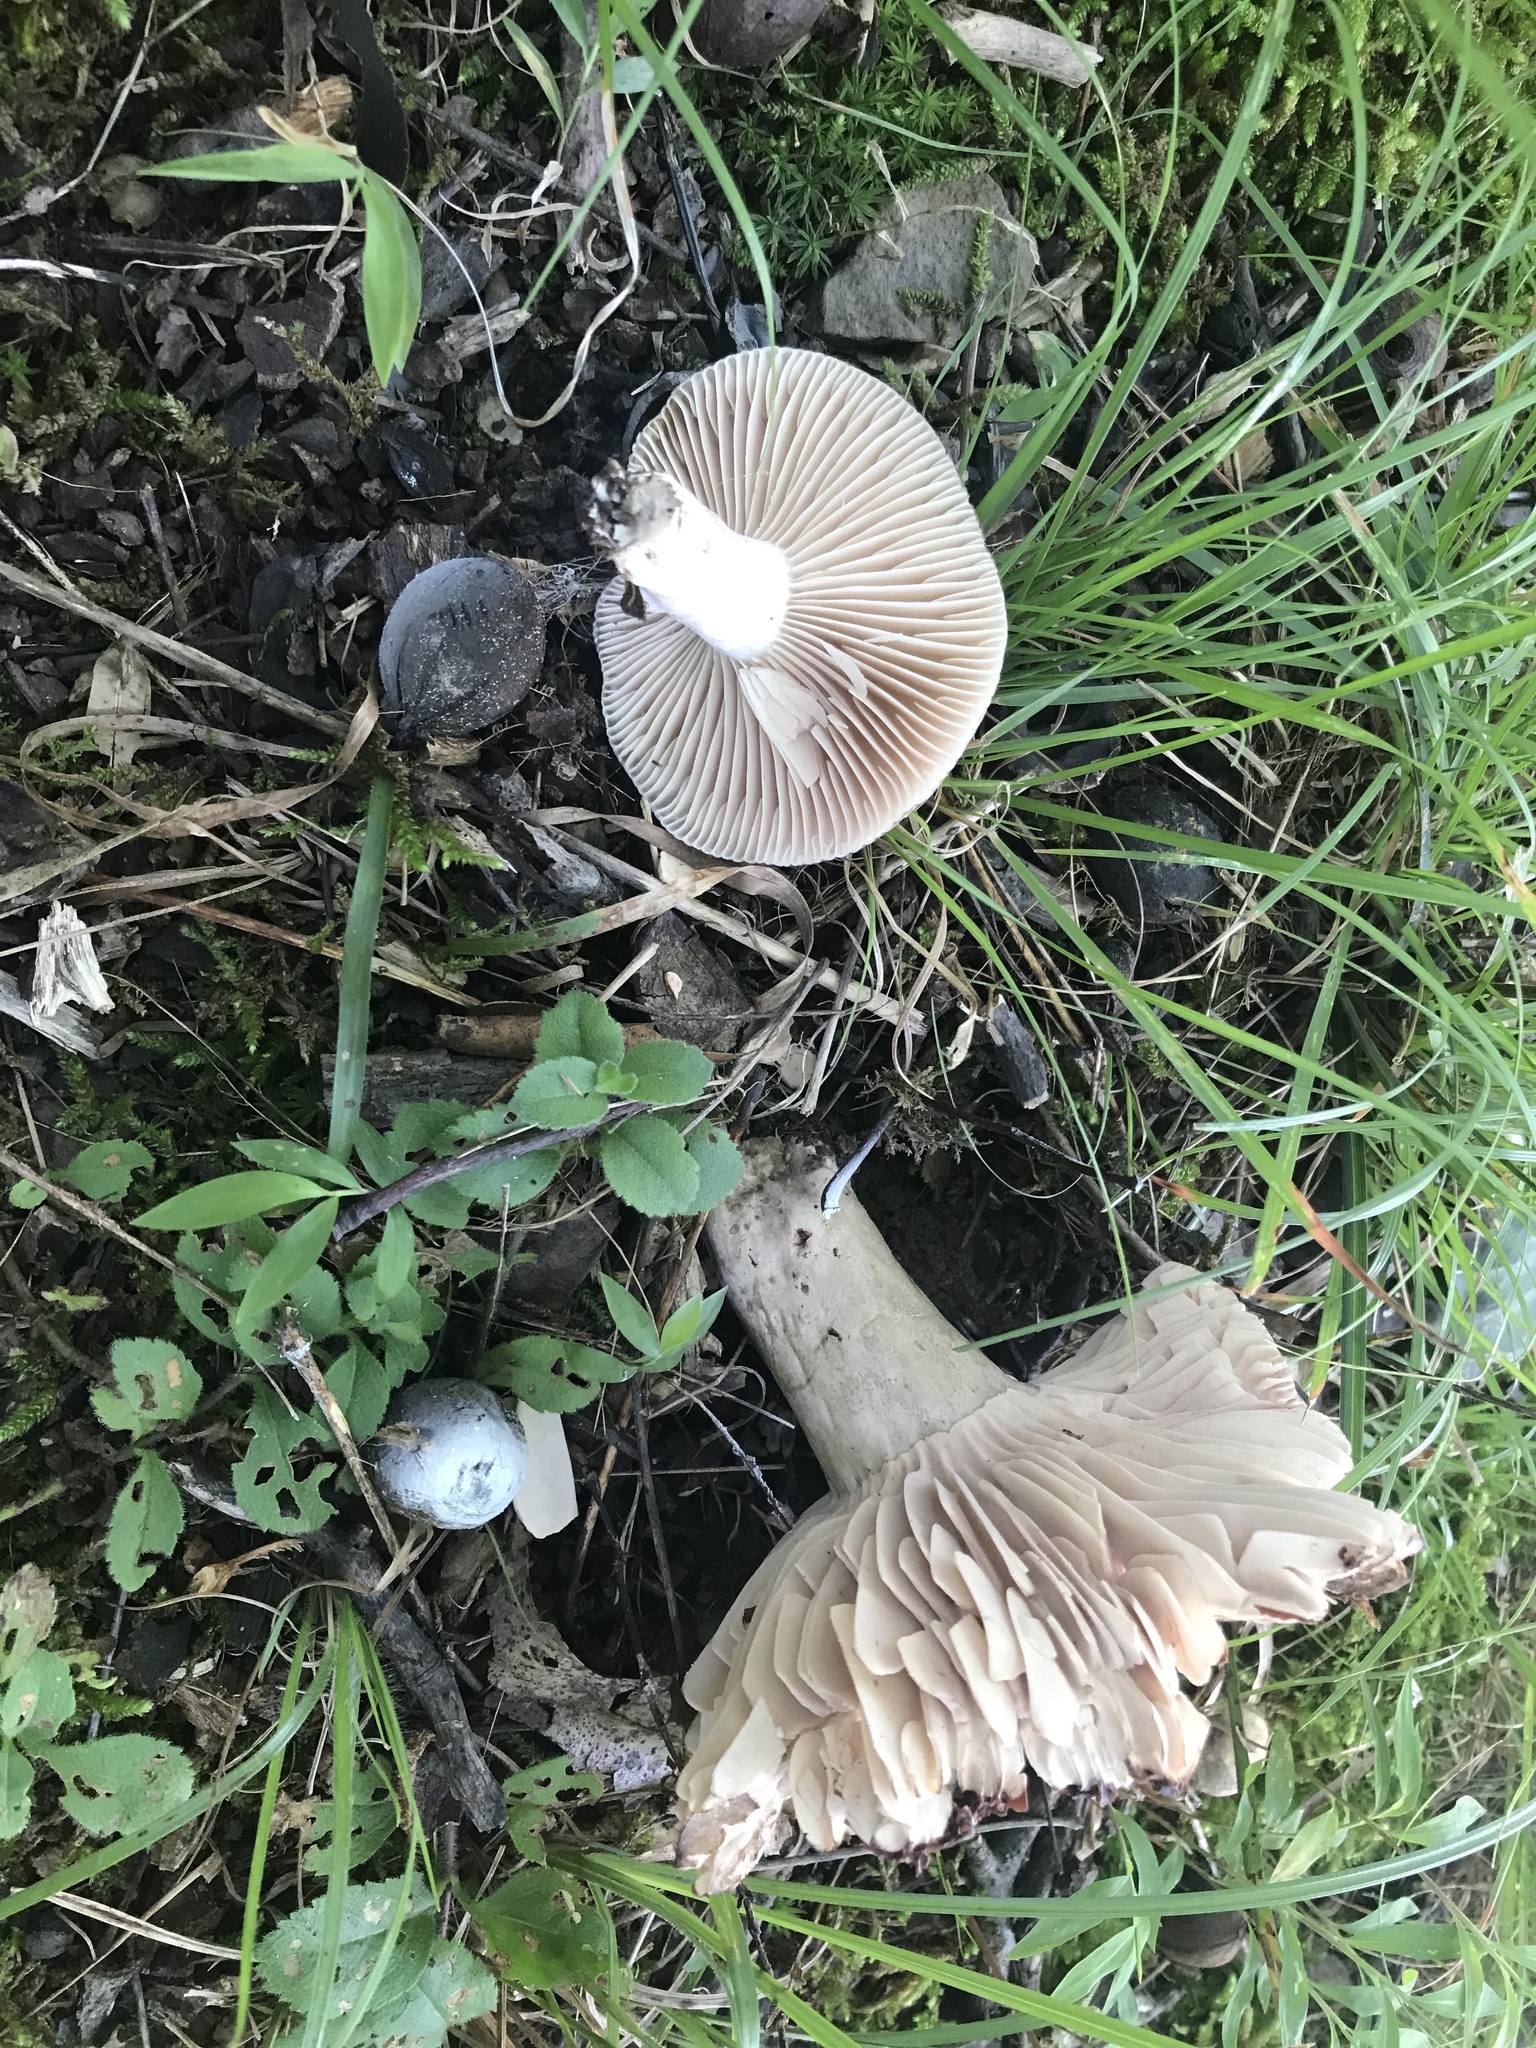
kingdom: Fungi
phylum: Basidiomycota
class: Agaricomycetes
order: Russulales
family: Russulaceae
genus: Russula
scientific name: Russula adusta
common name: Winecork brittlegill
